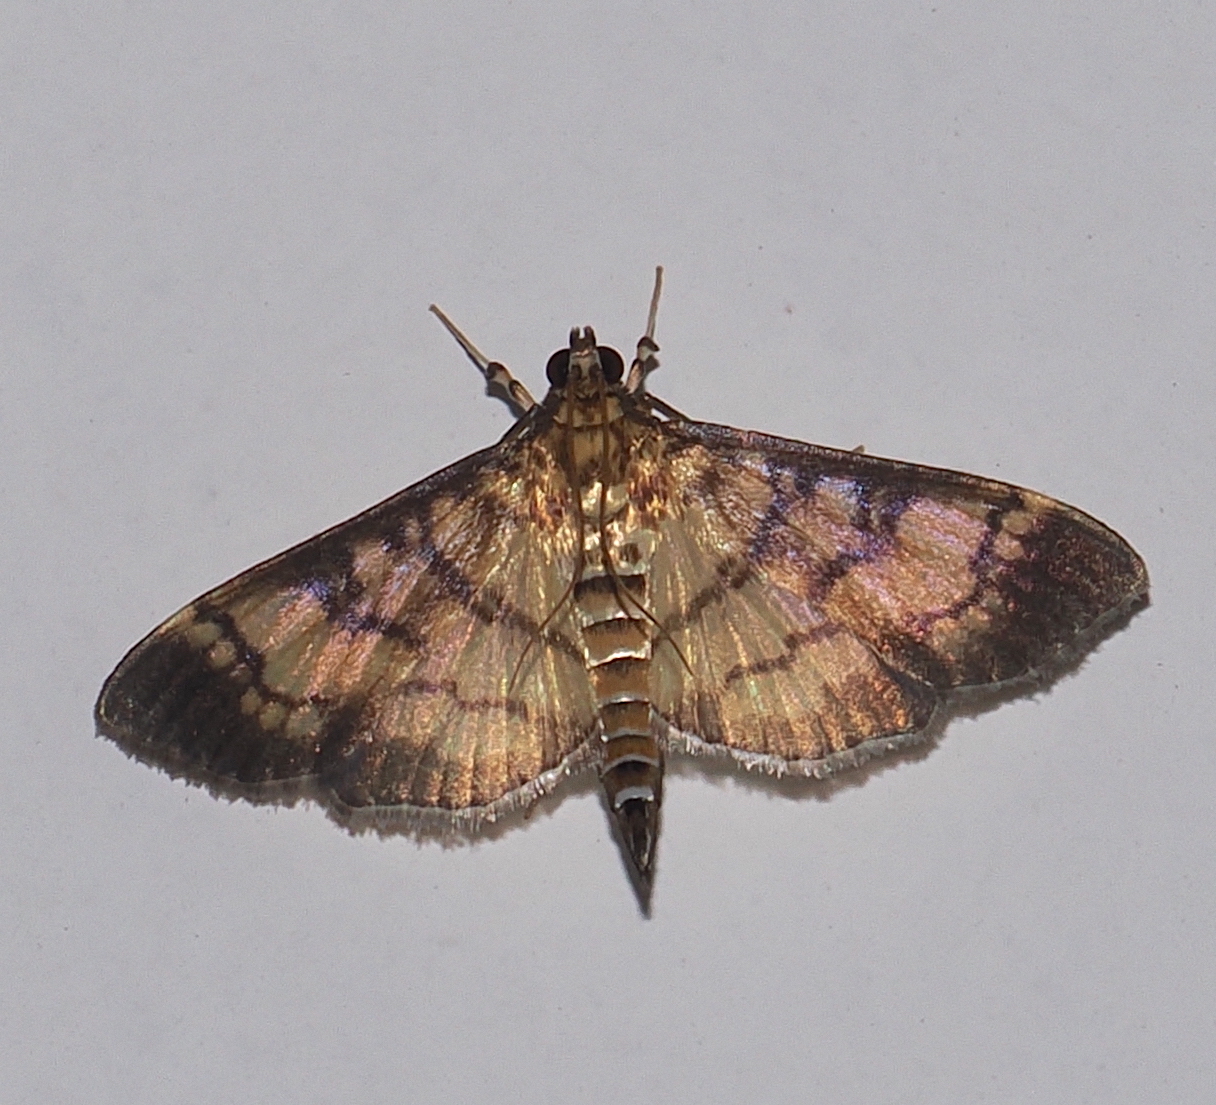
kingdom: Animalia
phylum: Arthropoda
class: Insecta
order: Lepidoptera
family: Crambidae
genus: Ategumia
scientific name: Ategumia matutinalis
